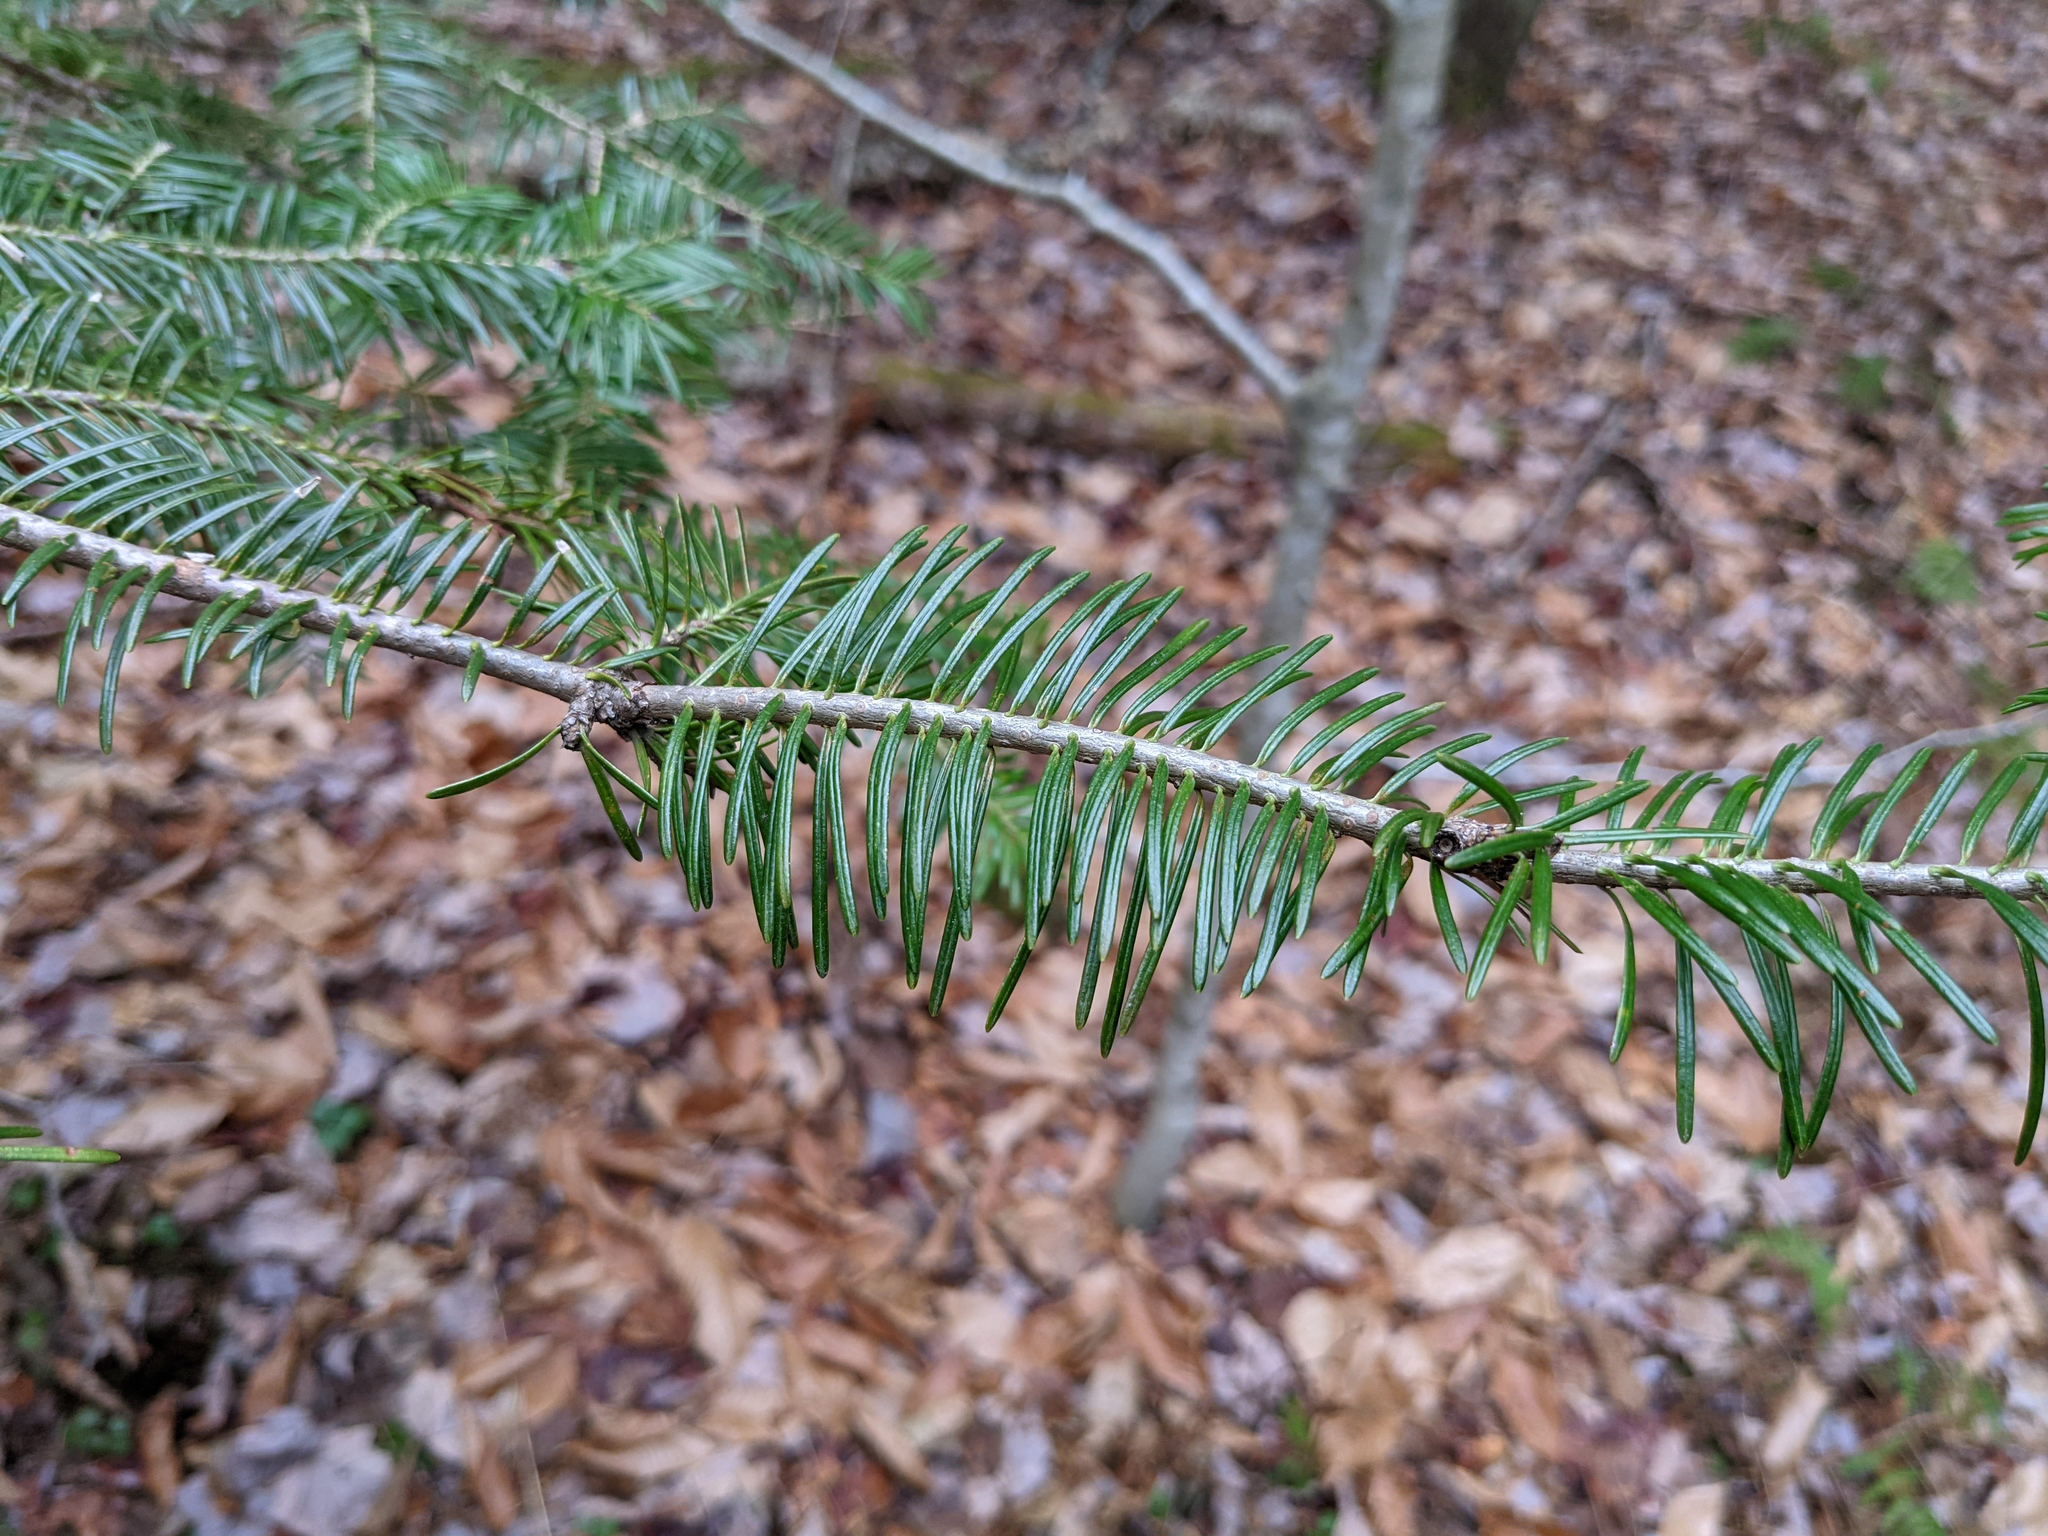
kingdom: Plantae
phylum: Tracheophyta
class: Pinopsida
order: Pinales
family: Pinaceae
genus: Abies
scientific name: Abies balsamea
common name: Balsam fir
